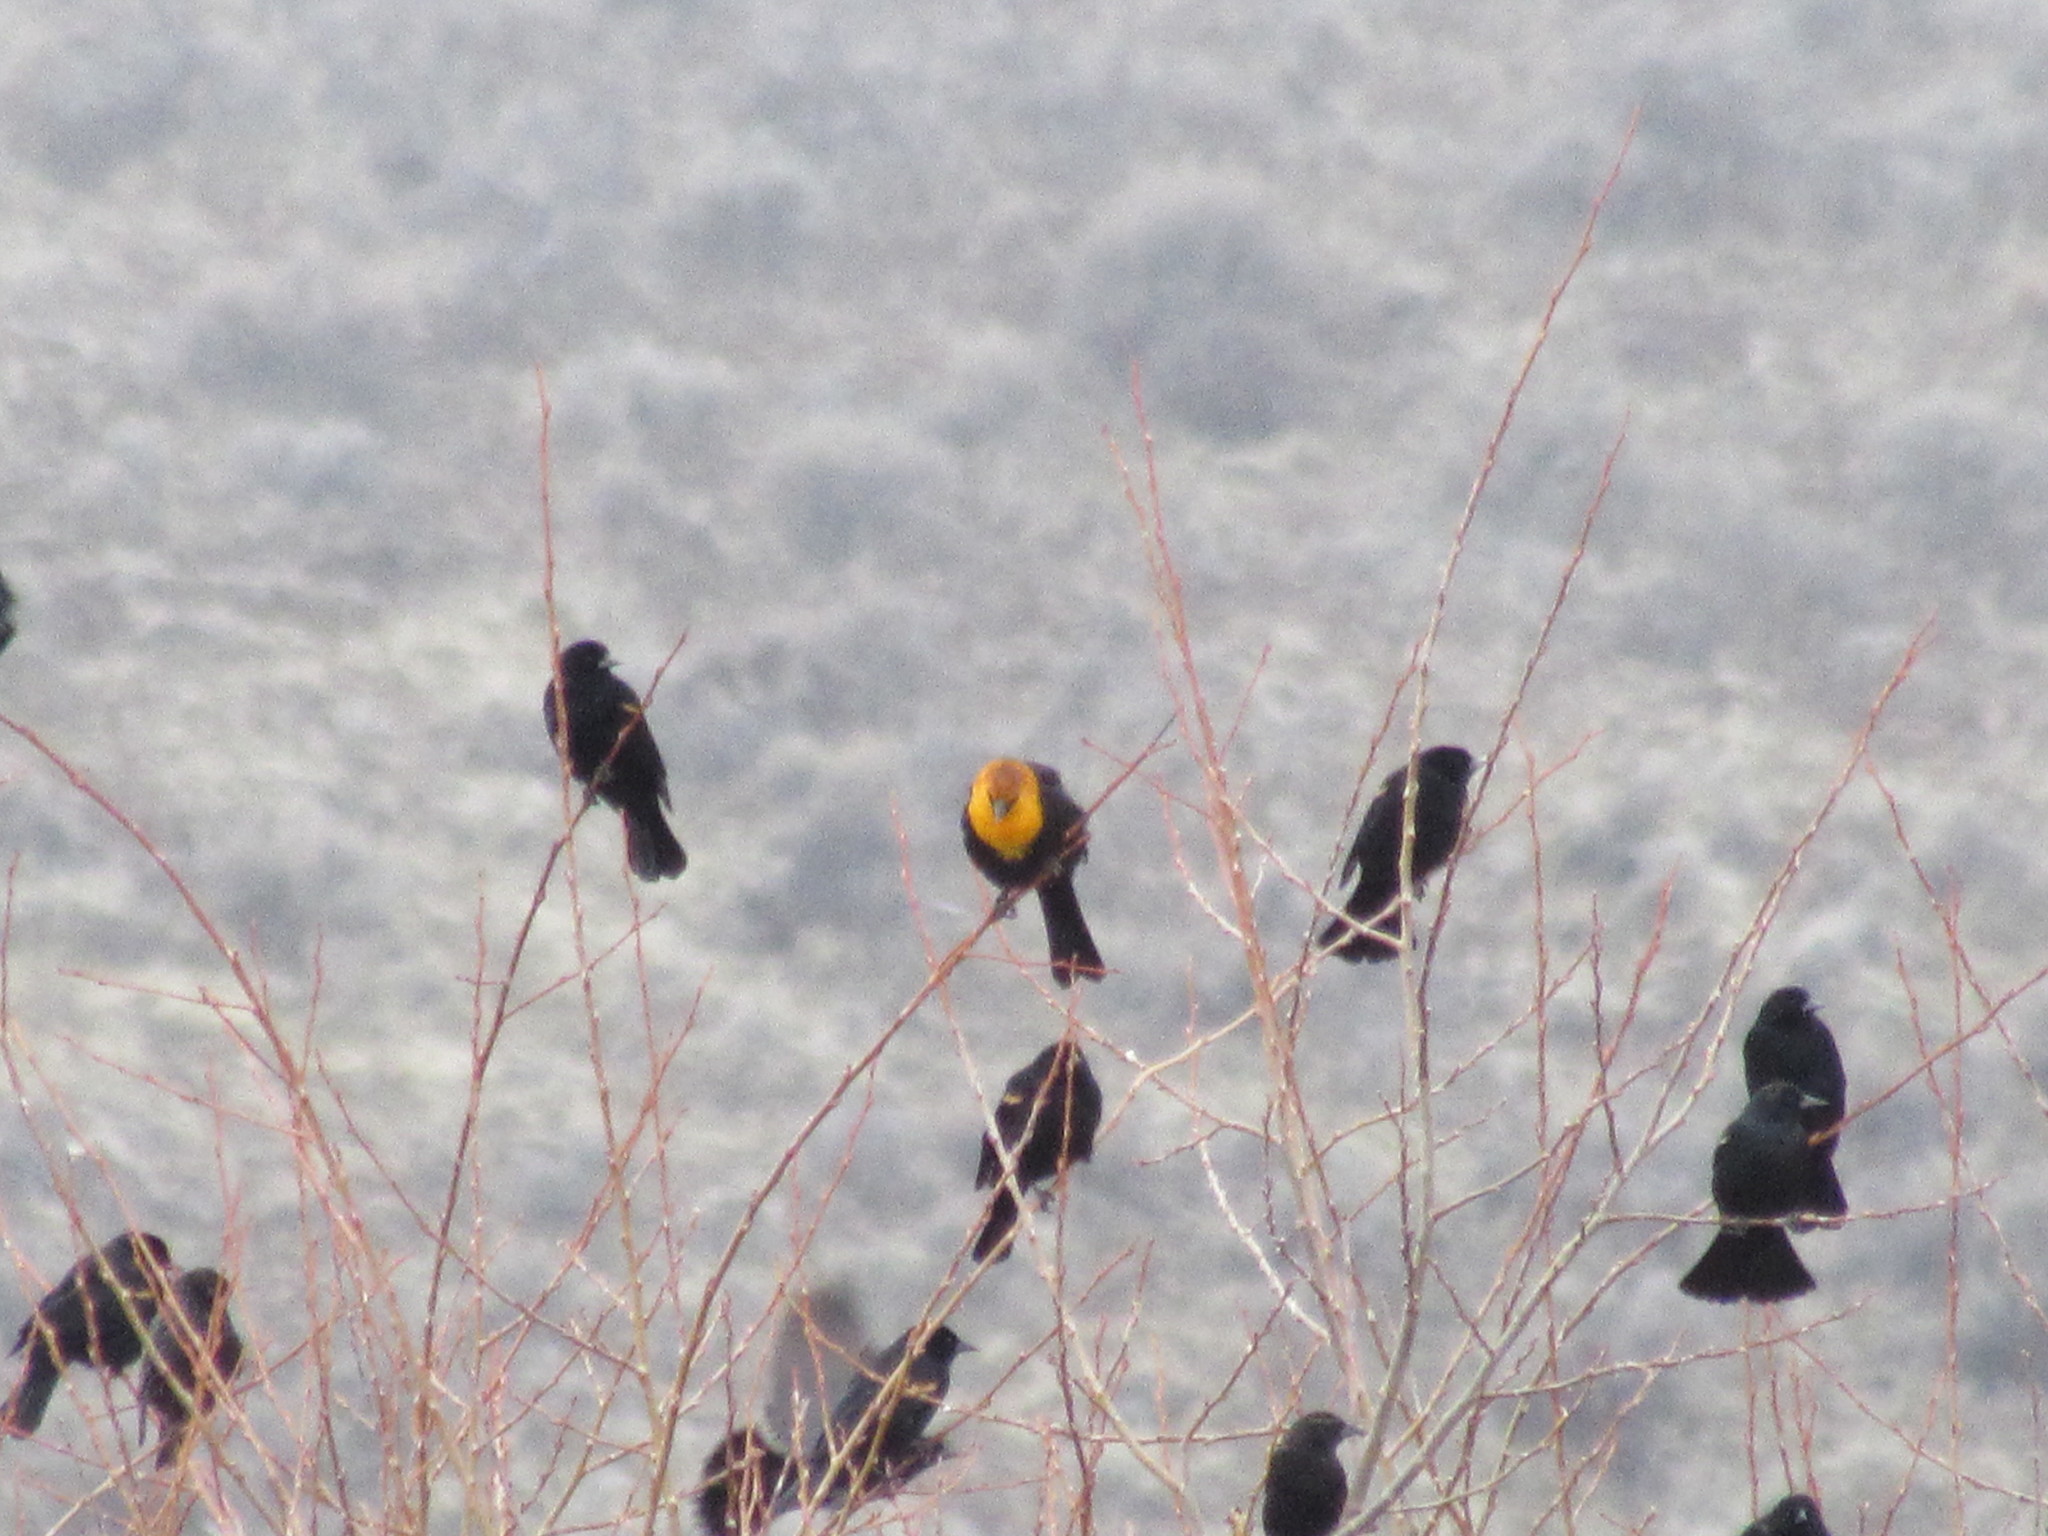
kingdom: Animalia
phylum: Chordata
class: Aves
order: Passeriformes
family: Icteridae
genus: Xanthocephalus
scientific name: Xanthocephalus xanthocephalus
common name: Yellow-headed blackbird
